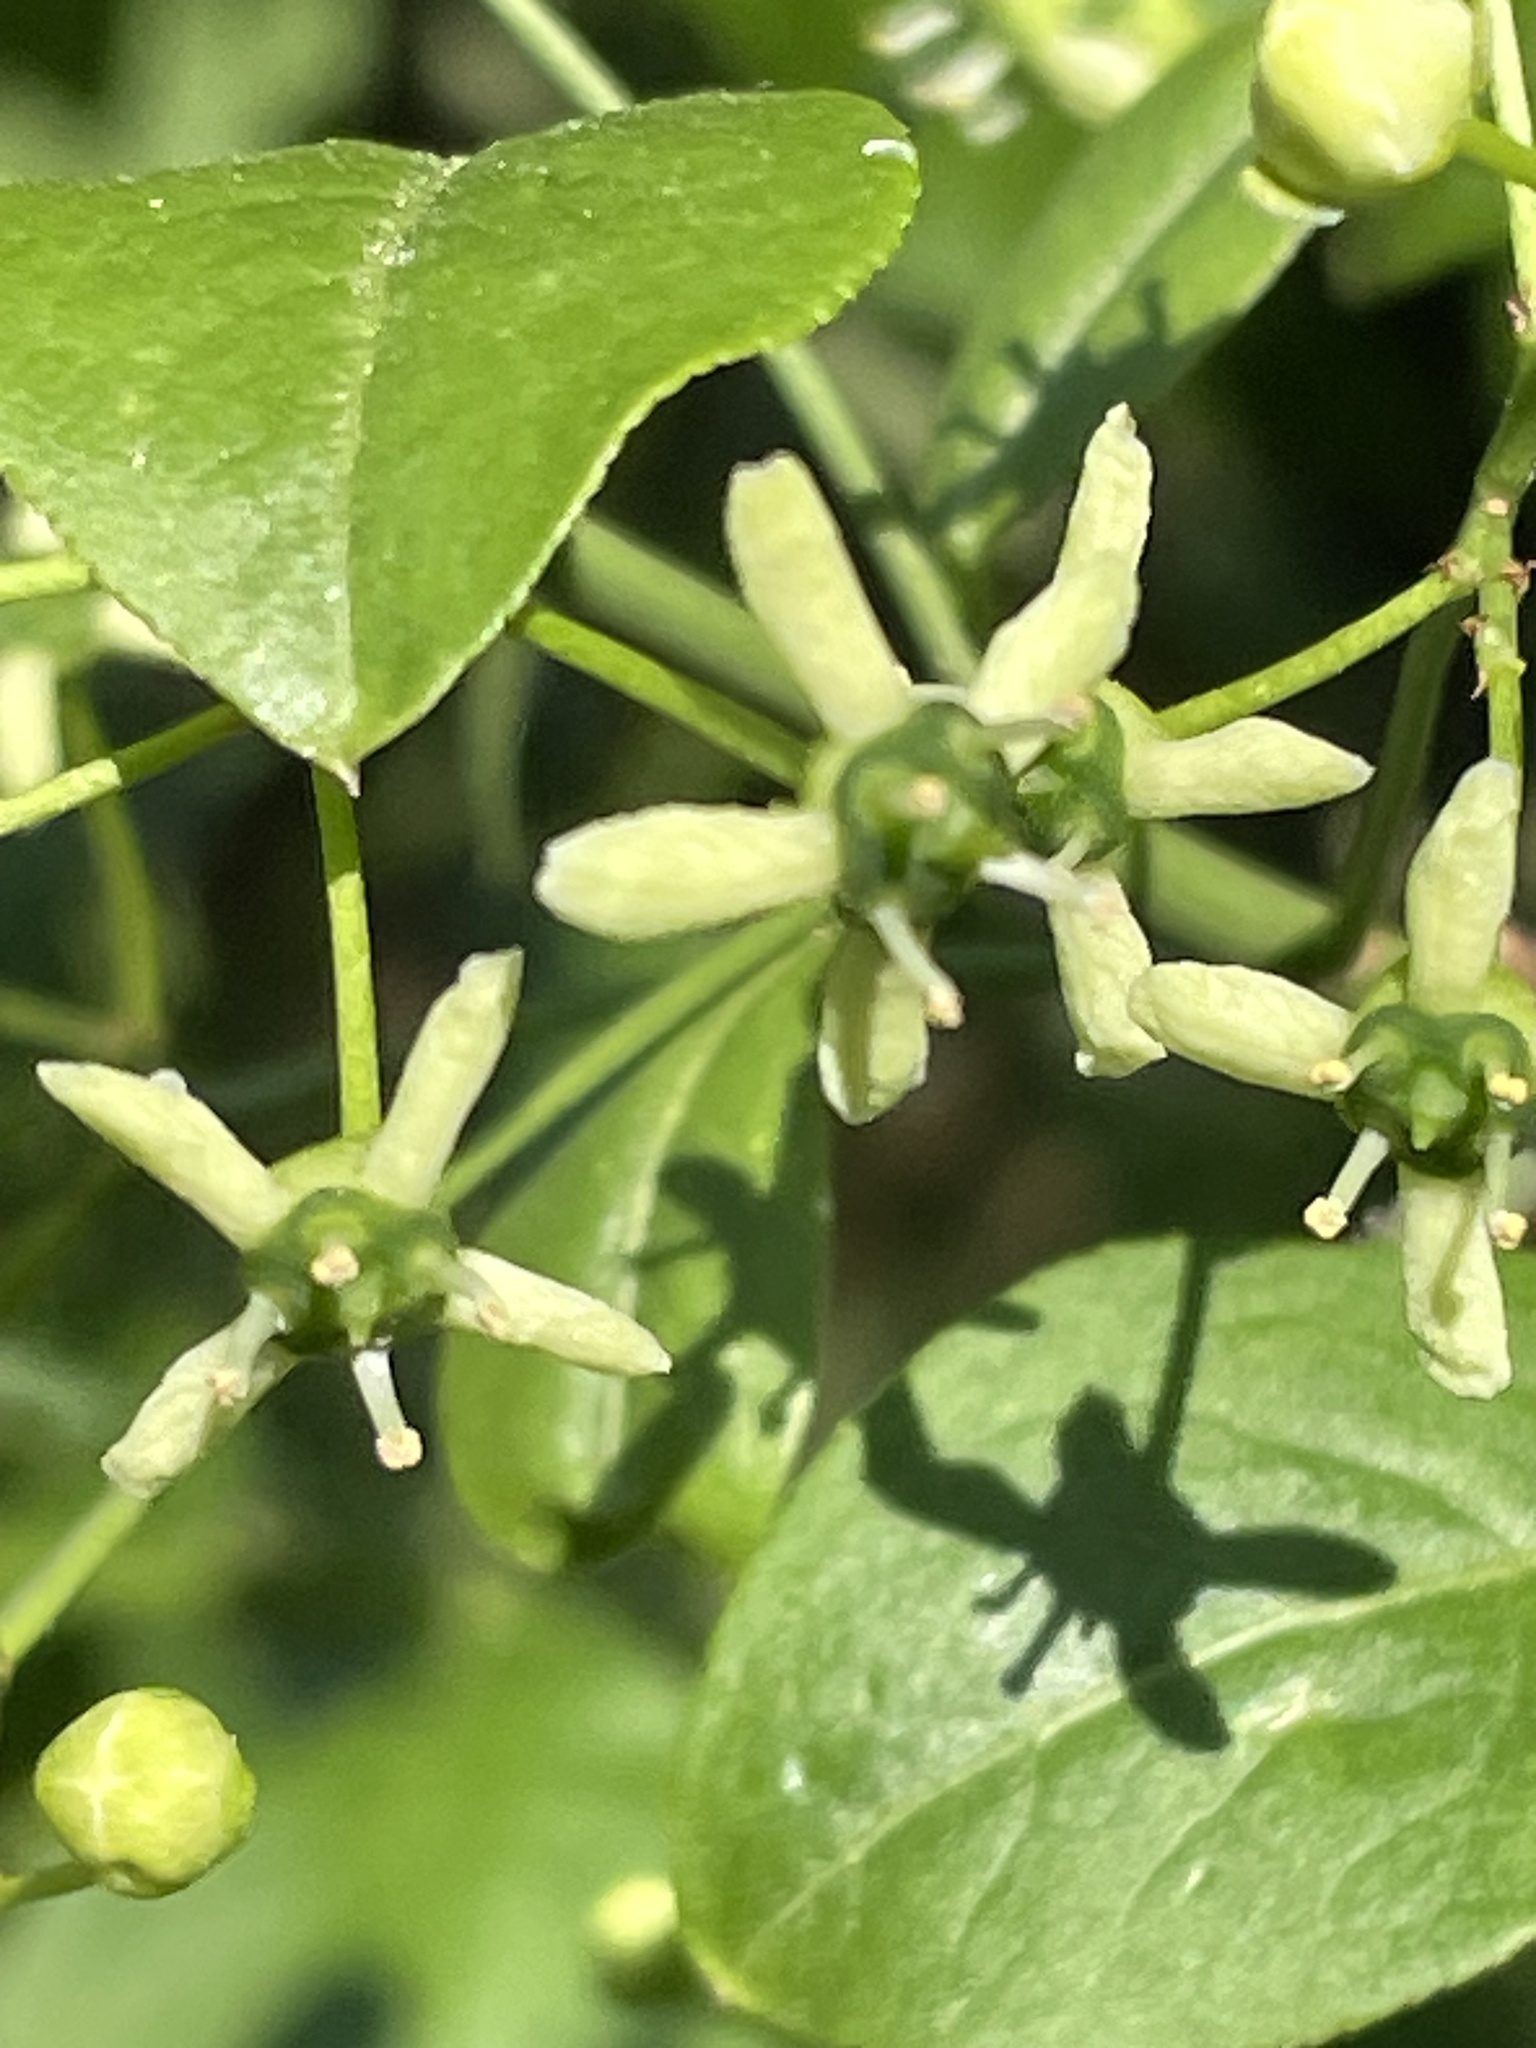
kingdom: Plantae
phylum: Tracheophyta
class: Magnoliopsida
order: Celastrales
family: Celastraceae
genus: Euonymus
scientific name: Euonymus europaeus
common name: Spindle
